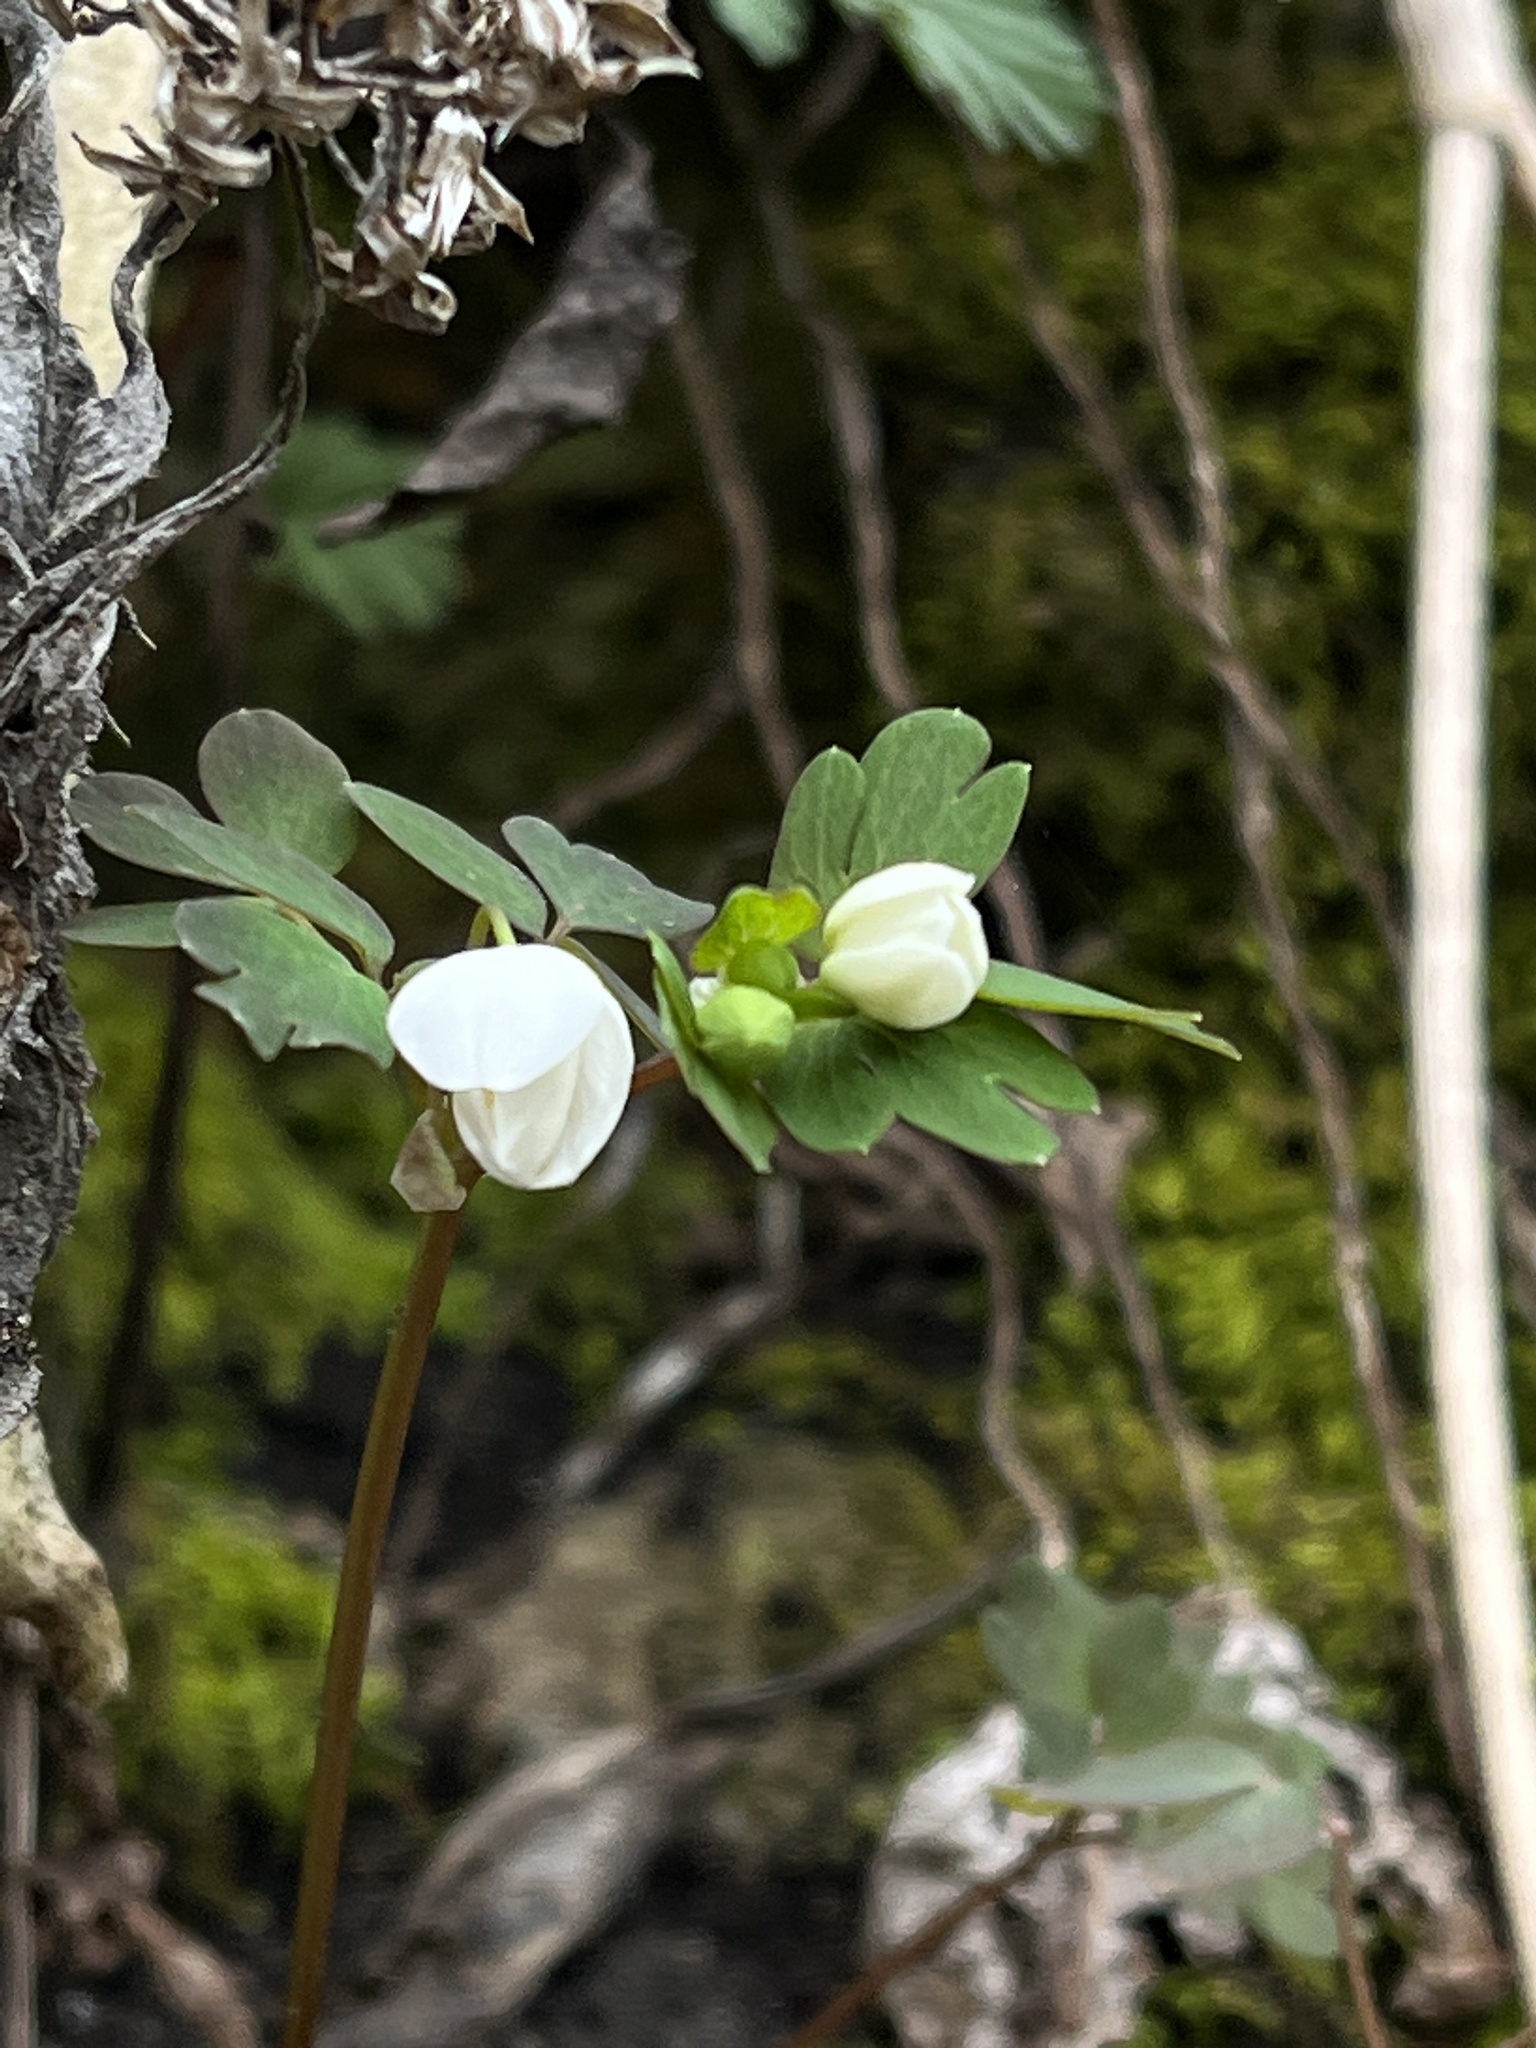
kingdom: Plantae
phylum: Tracheophyta
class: Magnoliopsida
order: Ranunculales
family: Ranunculaceae
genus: Enemion
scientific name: Enemion biternatum
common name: Eastern false rue-anemone
